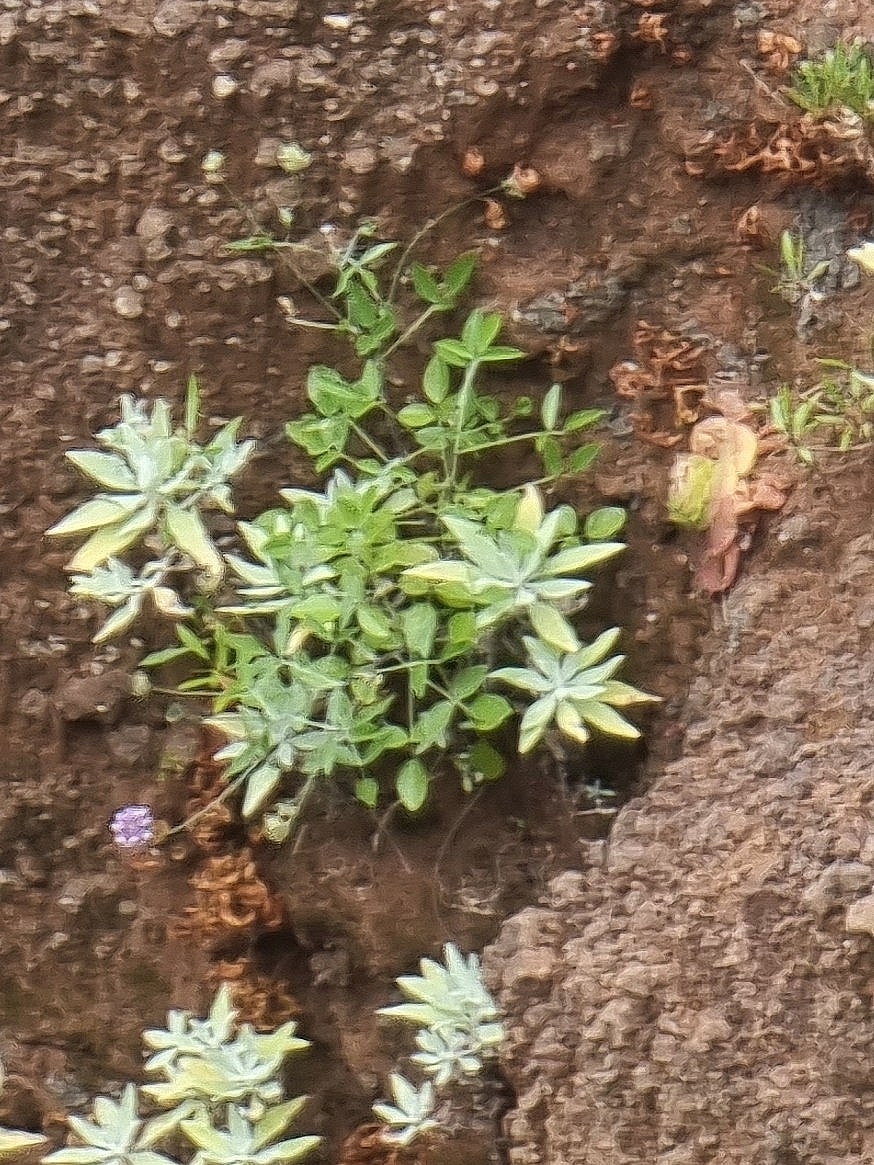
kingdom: Plantae
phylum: Tracheophyta
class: Magnoliopsida
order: Fabales
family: Fabaceae
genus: Bituminaria
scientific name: Bituminaria bituminosa
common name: Arabian pea
